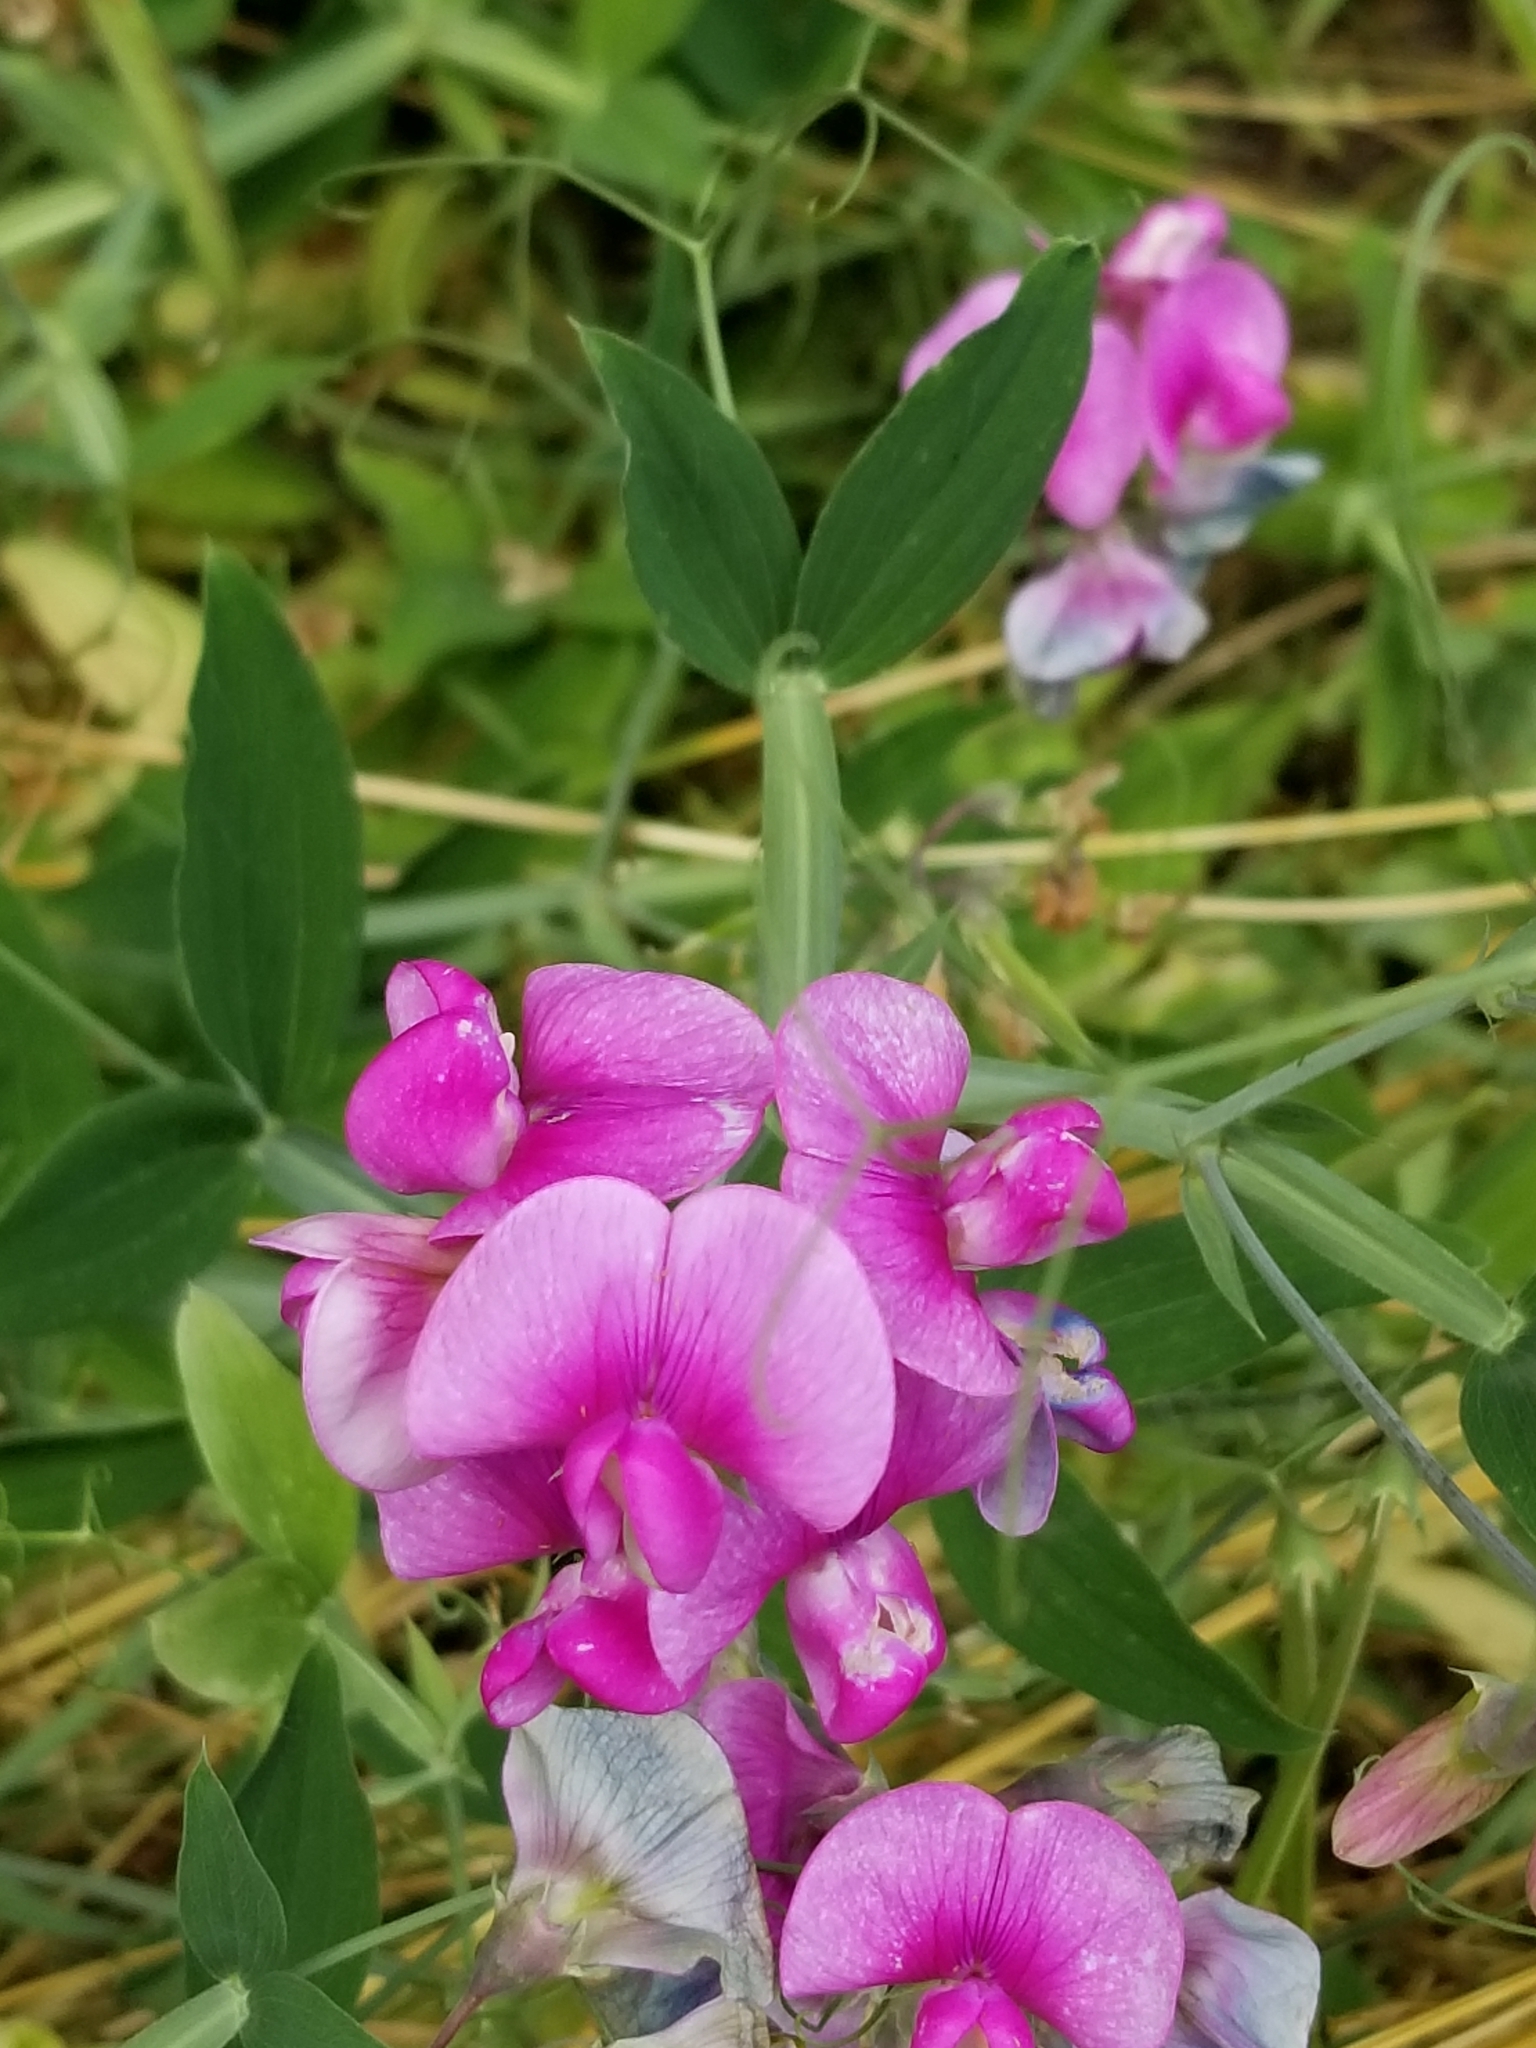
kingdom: Plantae
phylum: Tracheophyta
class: Magnoliopsida
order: Fabales
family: Fabaceae
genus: Lathyrus
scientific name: Lathyrus latifolius
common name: Perennial pea
